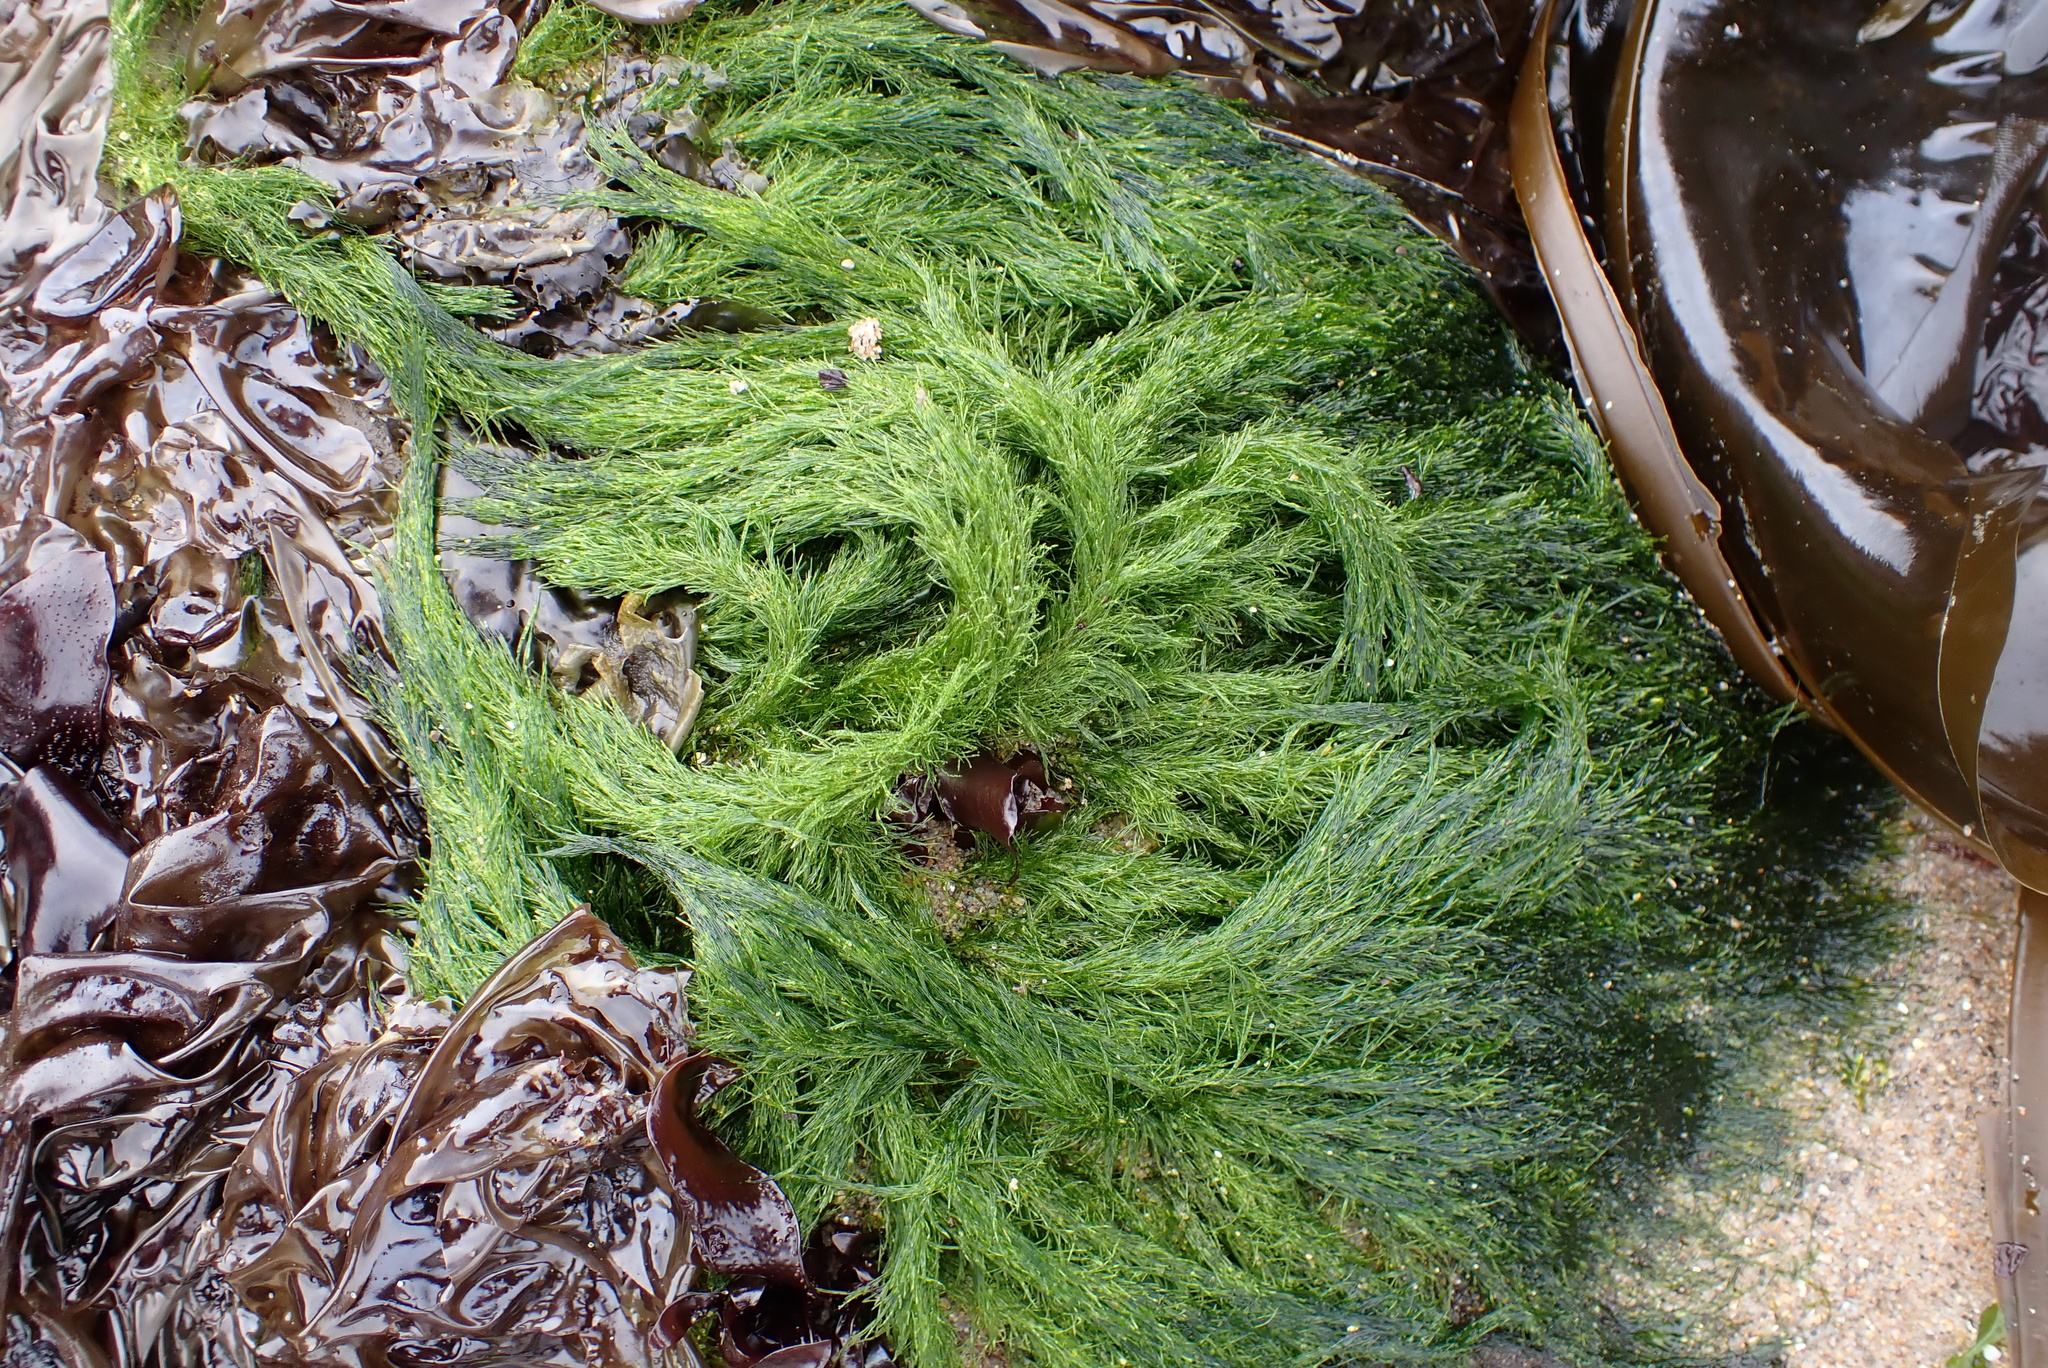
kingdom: Plantae
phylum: Chlorophyta
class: Ulvophyceae
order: Ulotrichales
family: Ulotrichaceae
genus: Acrosiphonia
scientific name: Acrosiphonia
